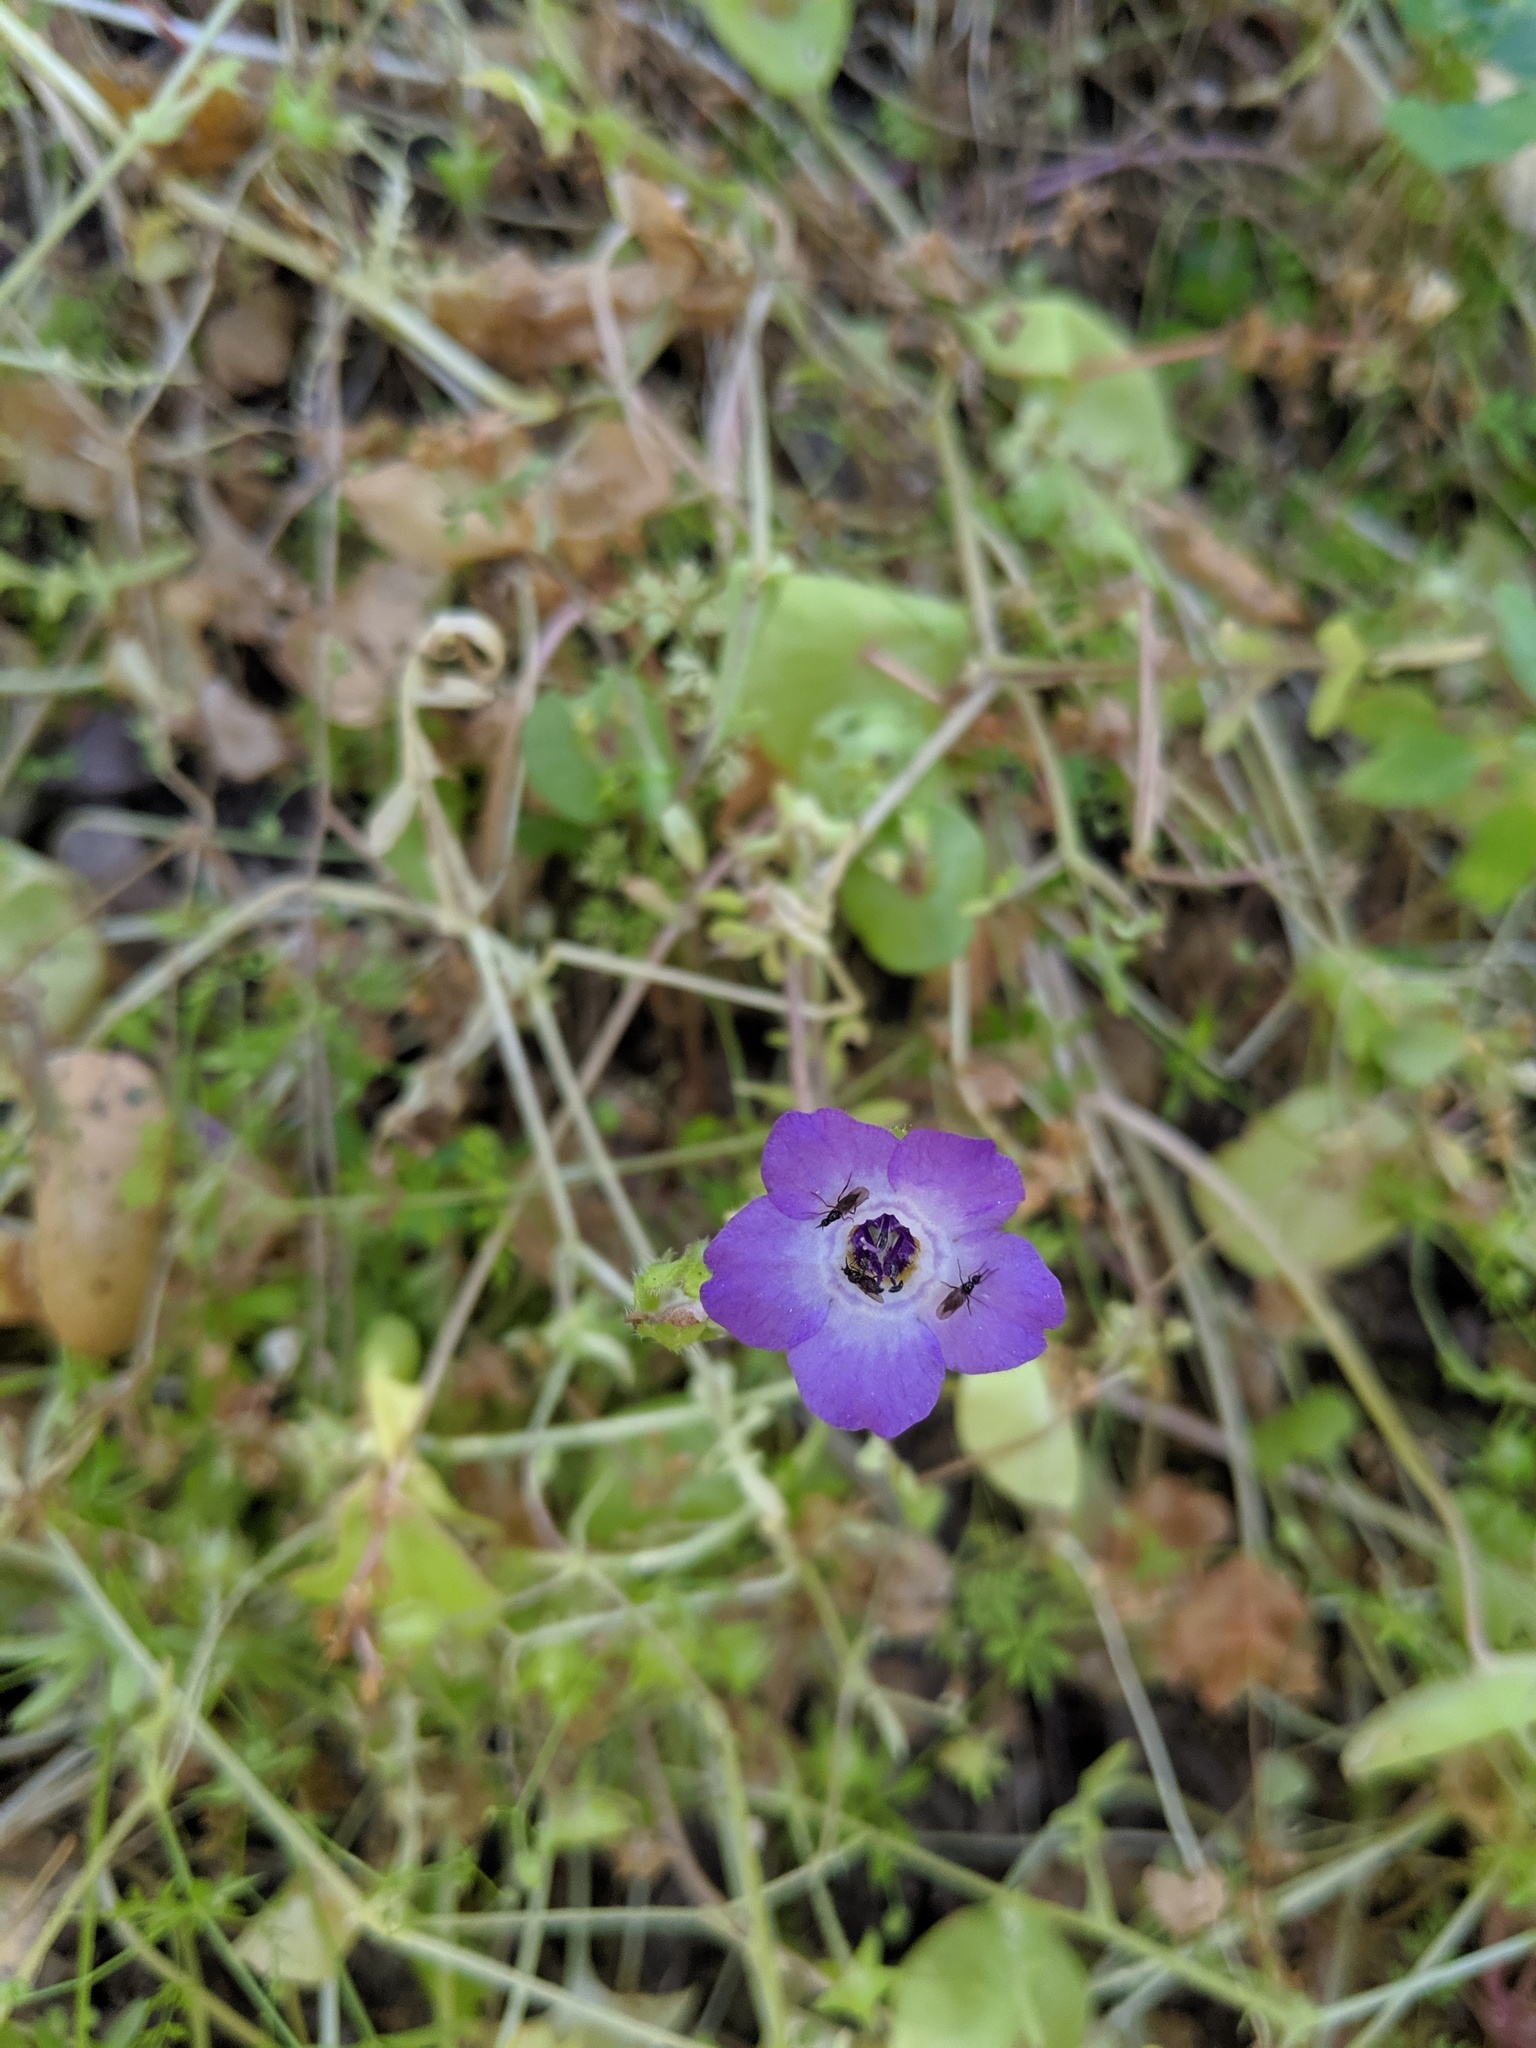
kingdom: Plantae
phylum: Tracheophyta
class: Magnoliopsida
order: Boraginales
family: Hydrophyllaceae
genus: Pholistoma
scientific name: Pholistoma auritum
